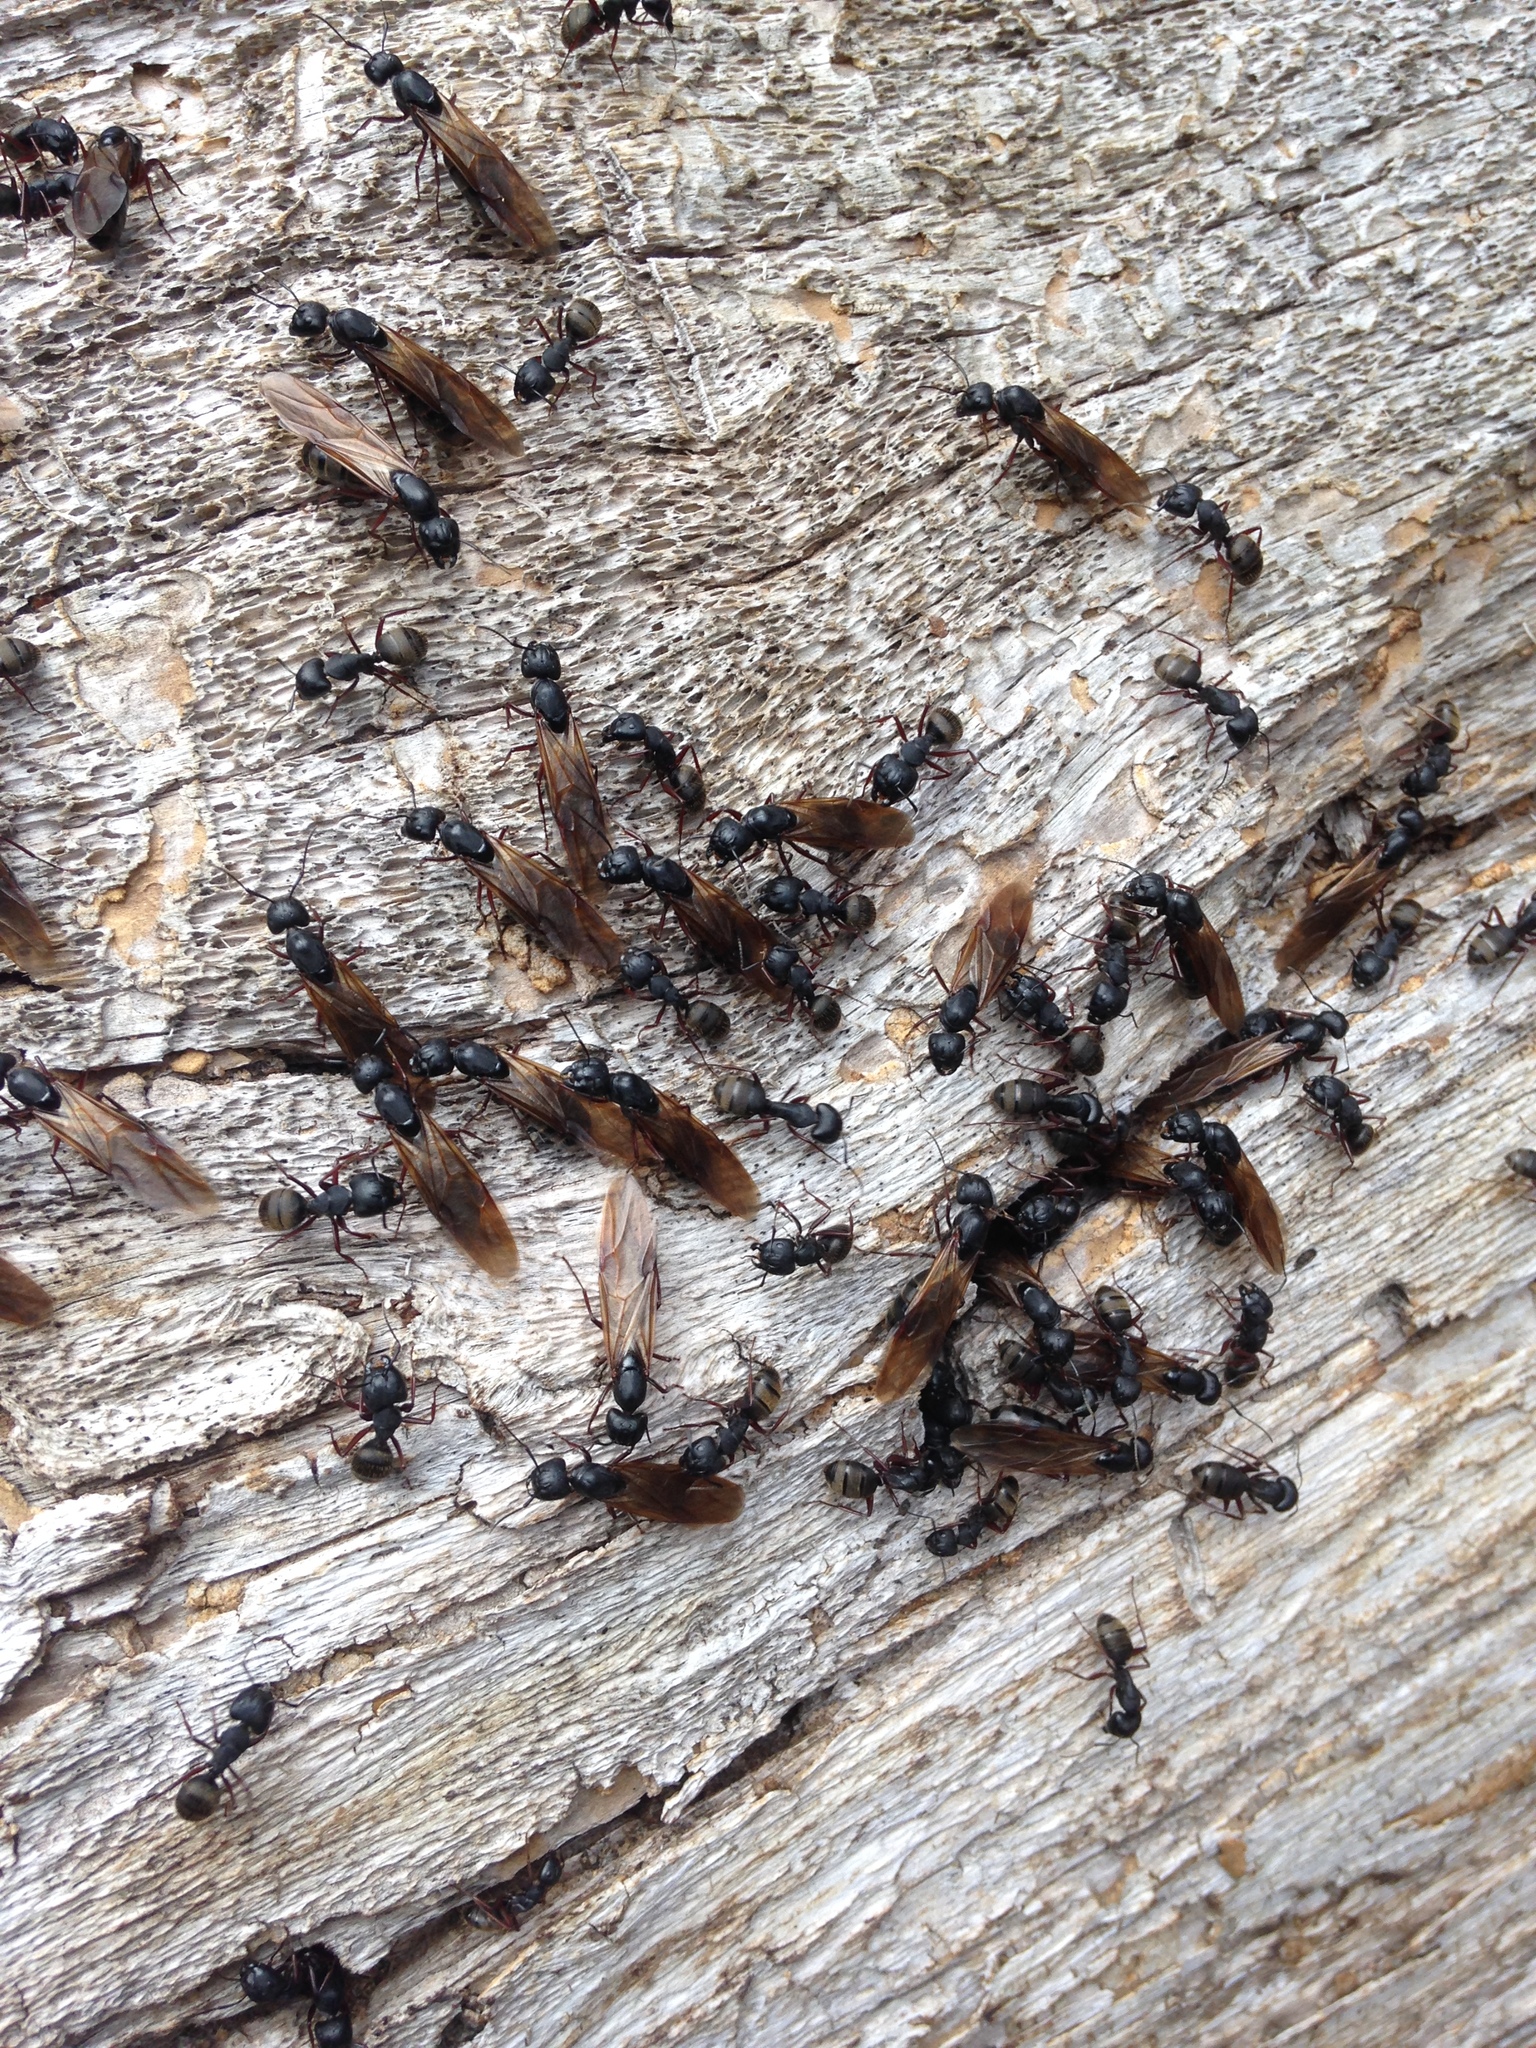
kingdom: Animalia
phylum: Arthropoda
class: Insecta
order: Hymenoptera
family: Formicidae
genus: Camponotus
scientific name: Camponotus modoc
